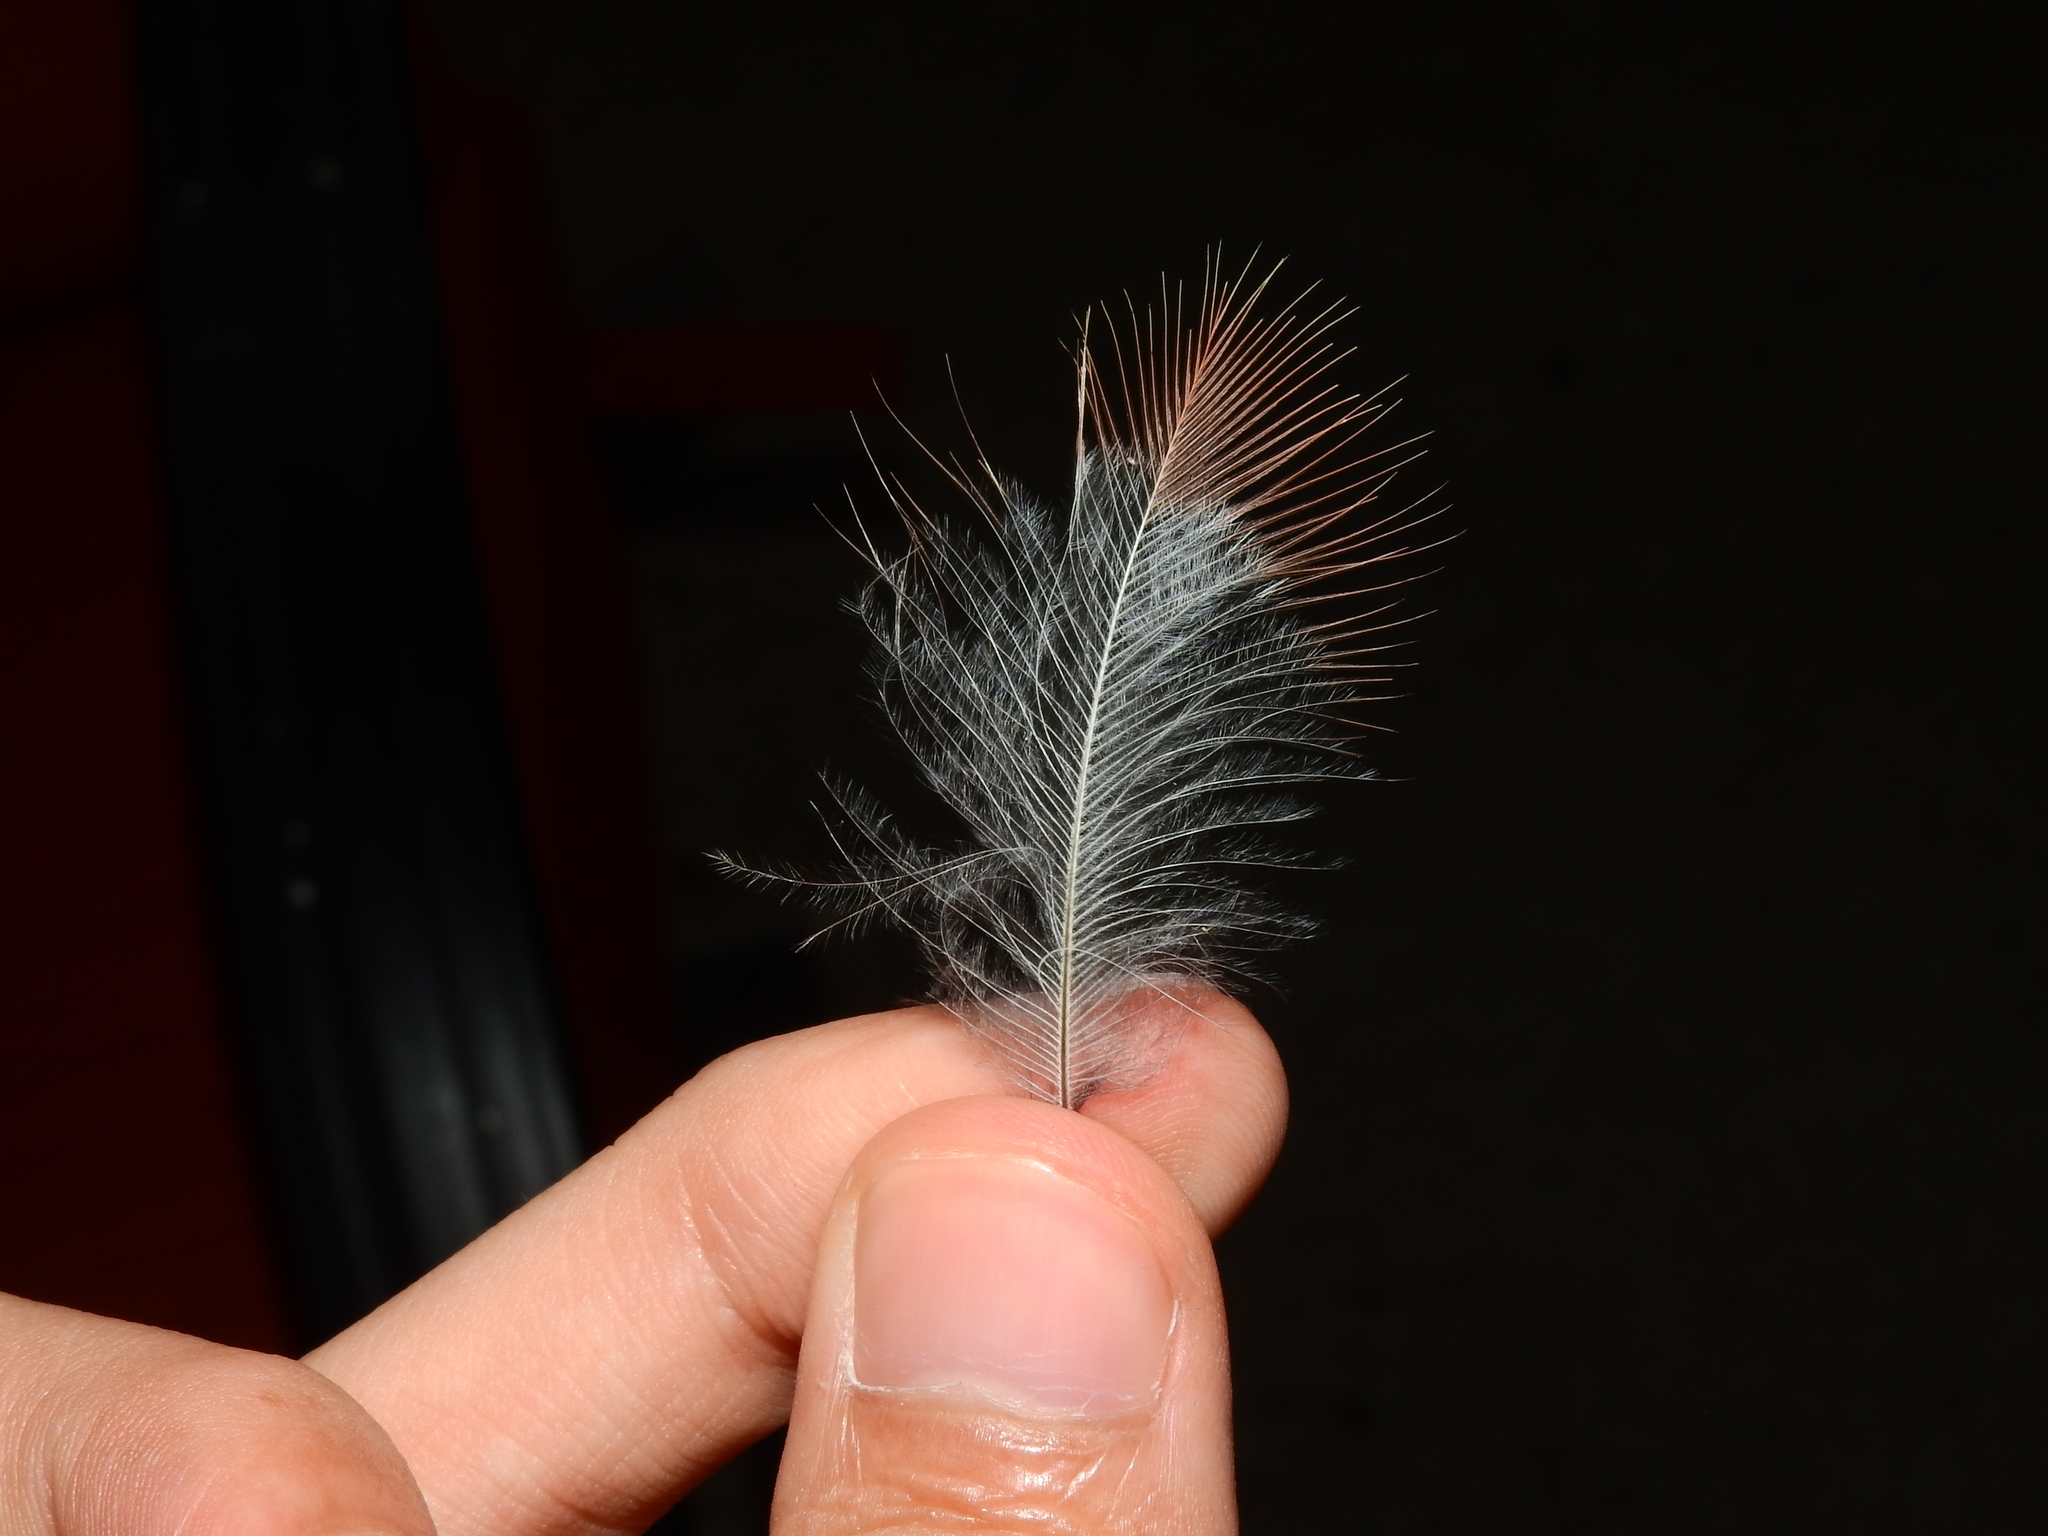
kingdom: Animalia
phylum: Chordata
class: Aves
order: Passeriformes
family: Cardinalidae
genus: Cardinalis
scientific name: Cardinalis cardinalis
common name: Northern cardinal
